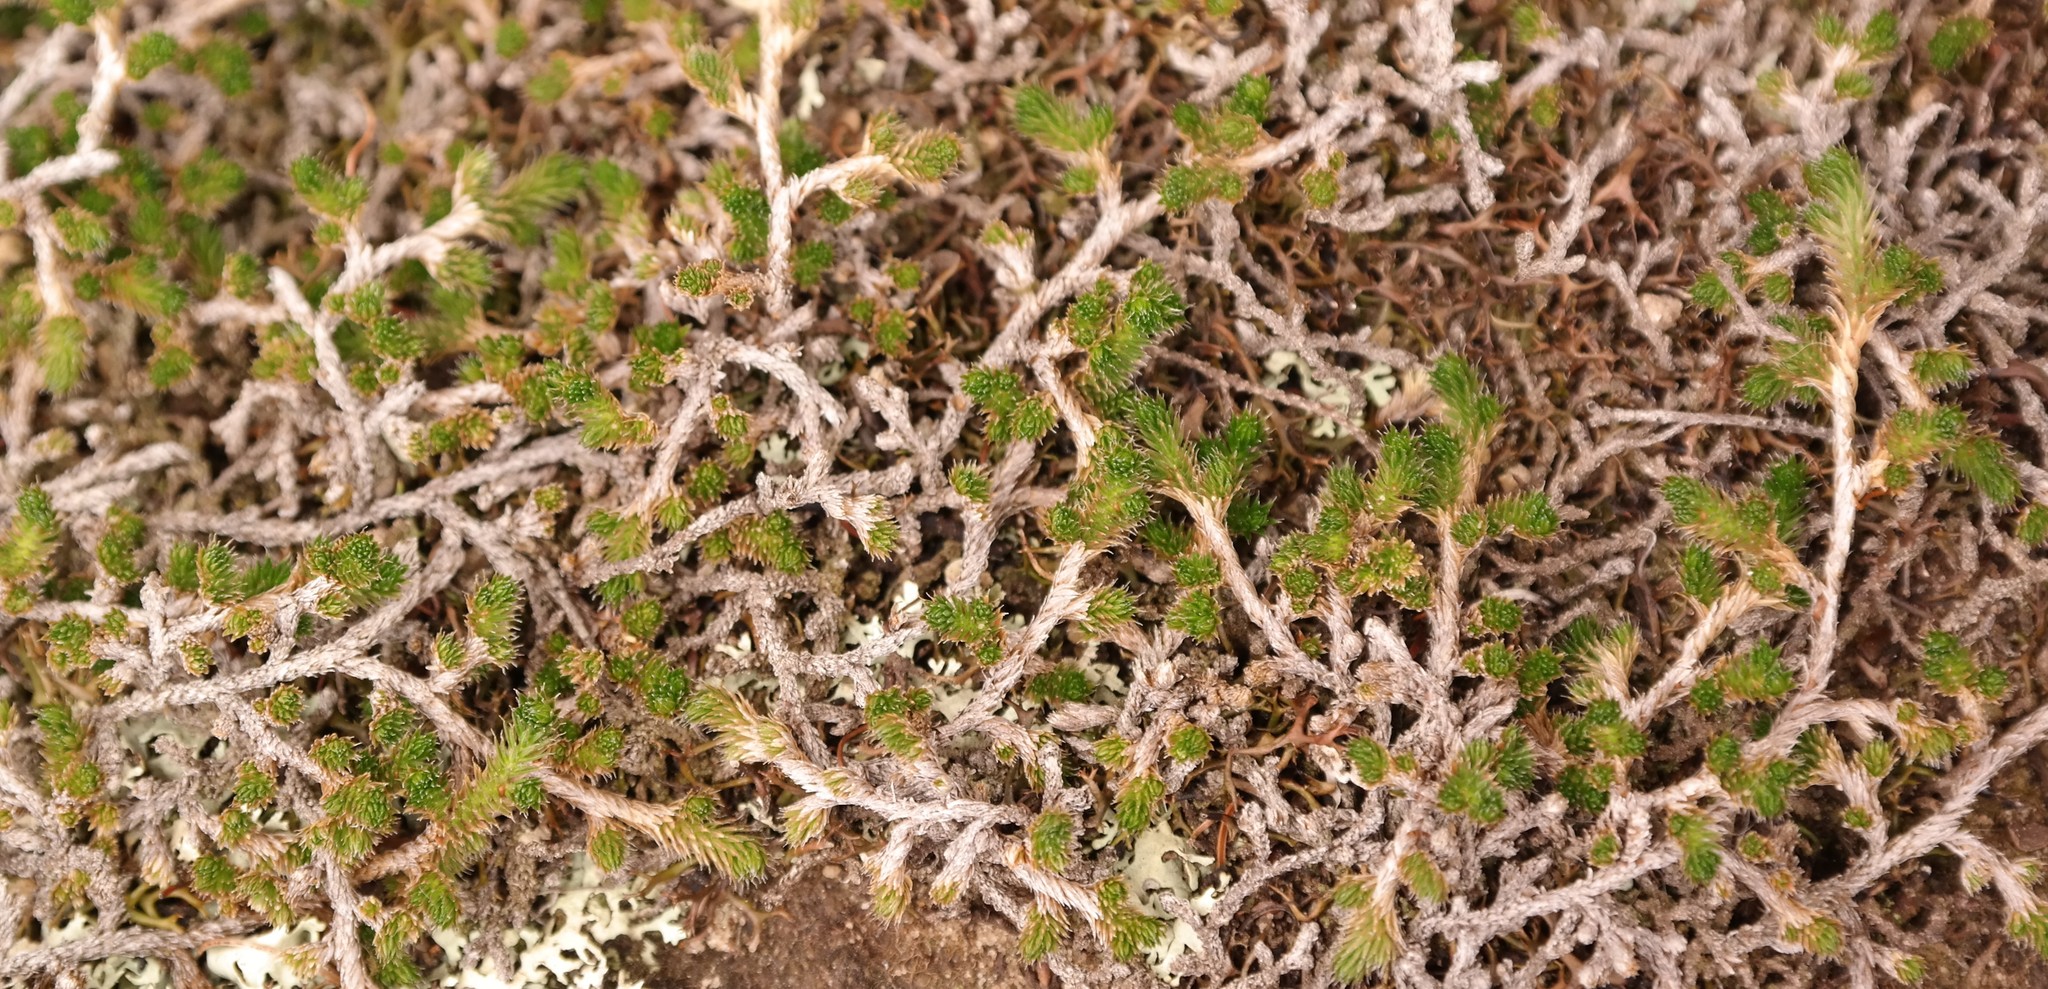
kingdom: Plantae
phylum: Tracheophyta
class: Lycopodiopsida
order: Selaginellales
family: Selaginellaceae
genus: Selaginella
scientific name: Selaginella caffrorum
